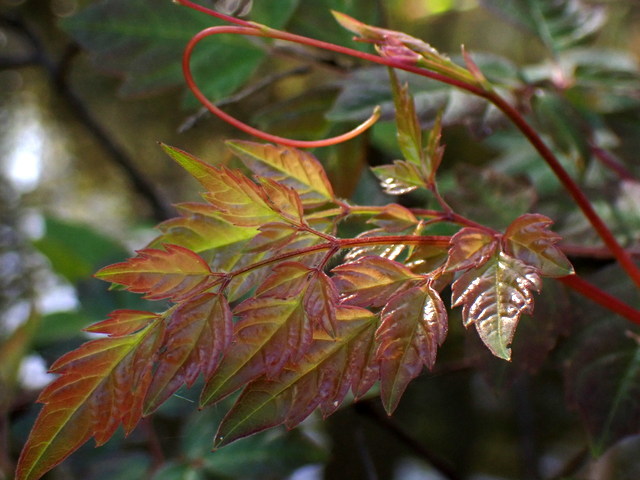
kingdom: Plantae
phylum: Tracheophyta
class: Magnoliopsida
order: Vitales
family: Vitaceae
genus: Nekemias
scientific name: Nekemias arborea
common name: Peppervine
